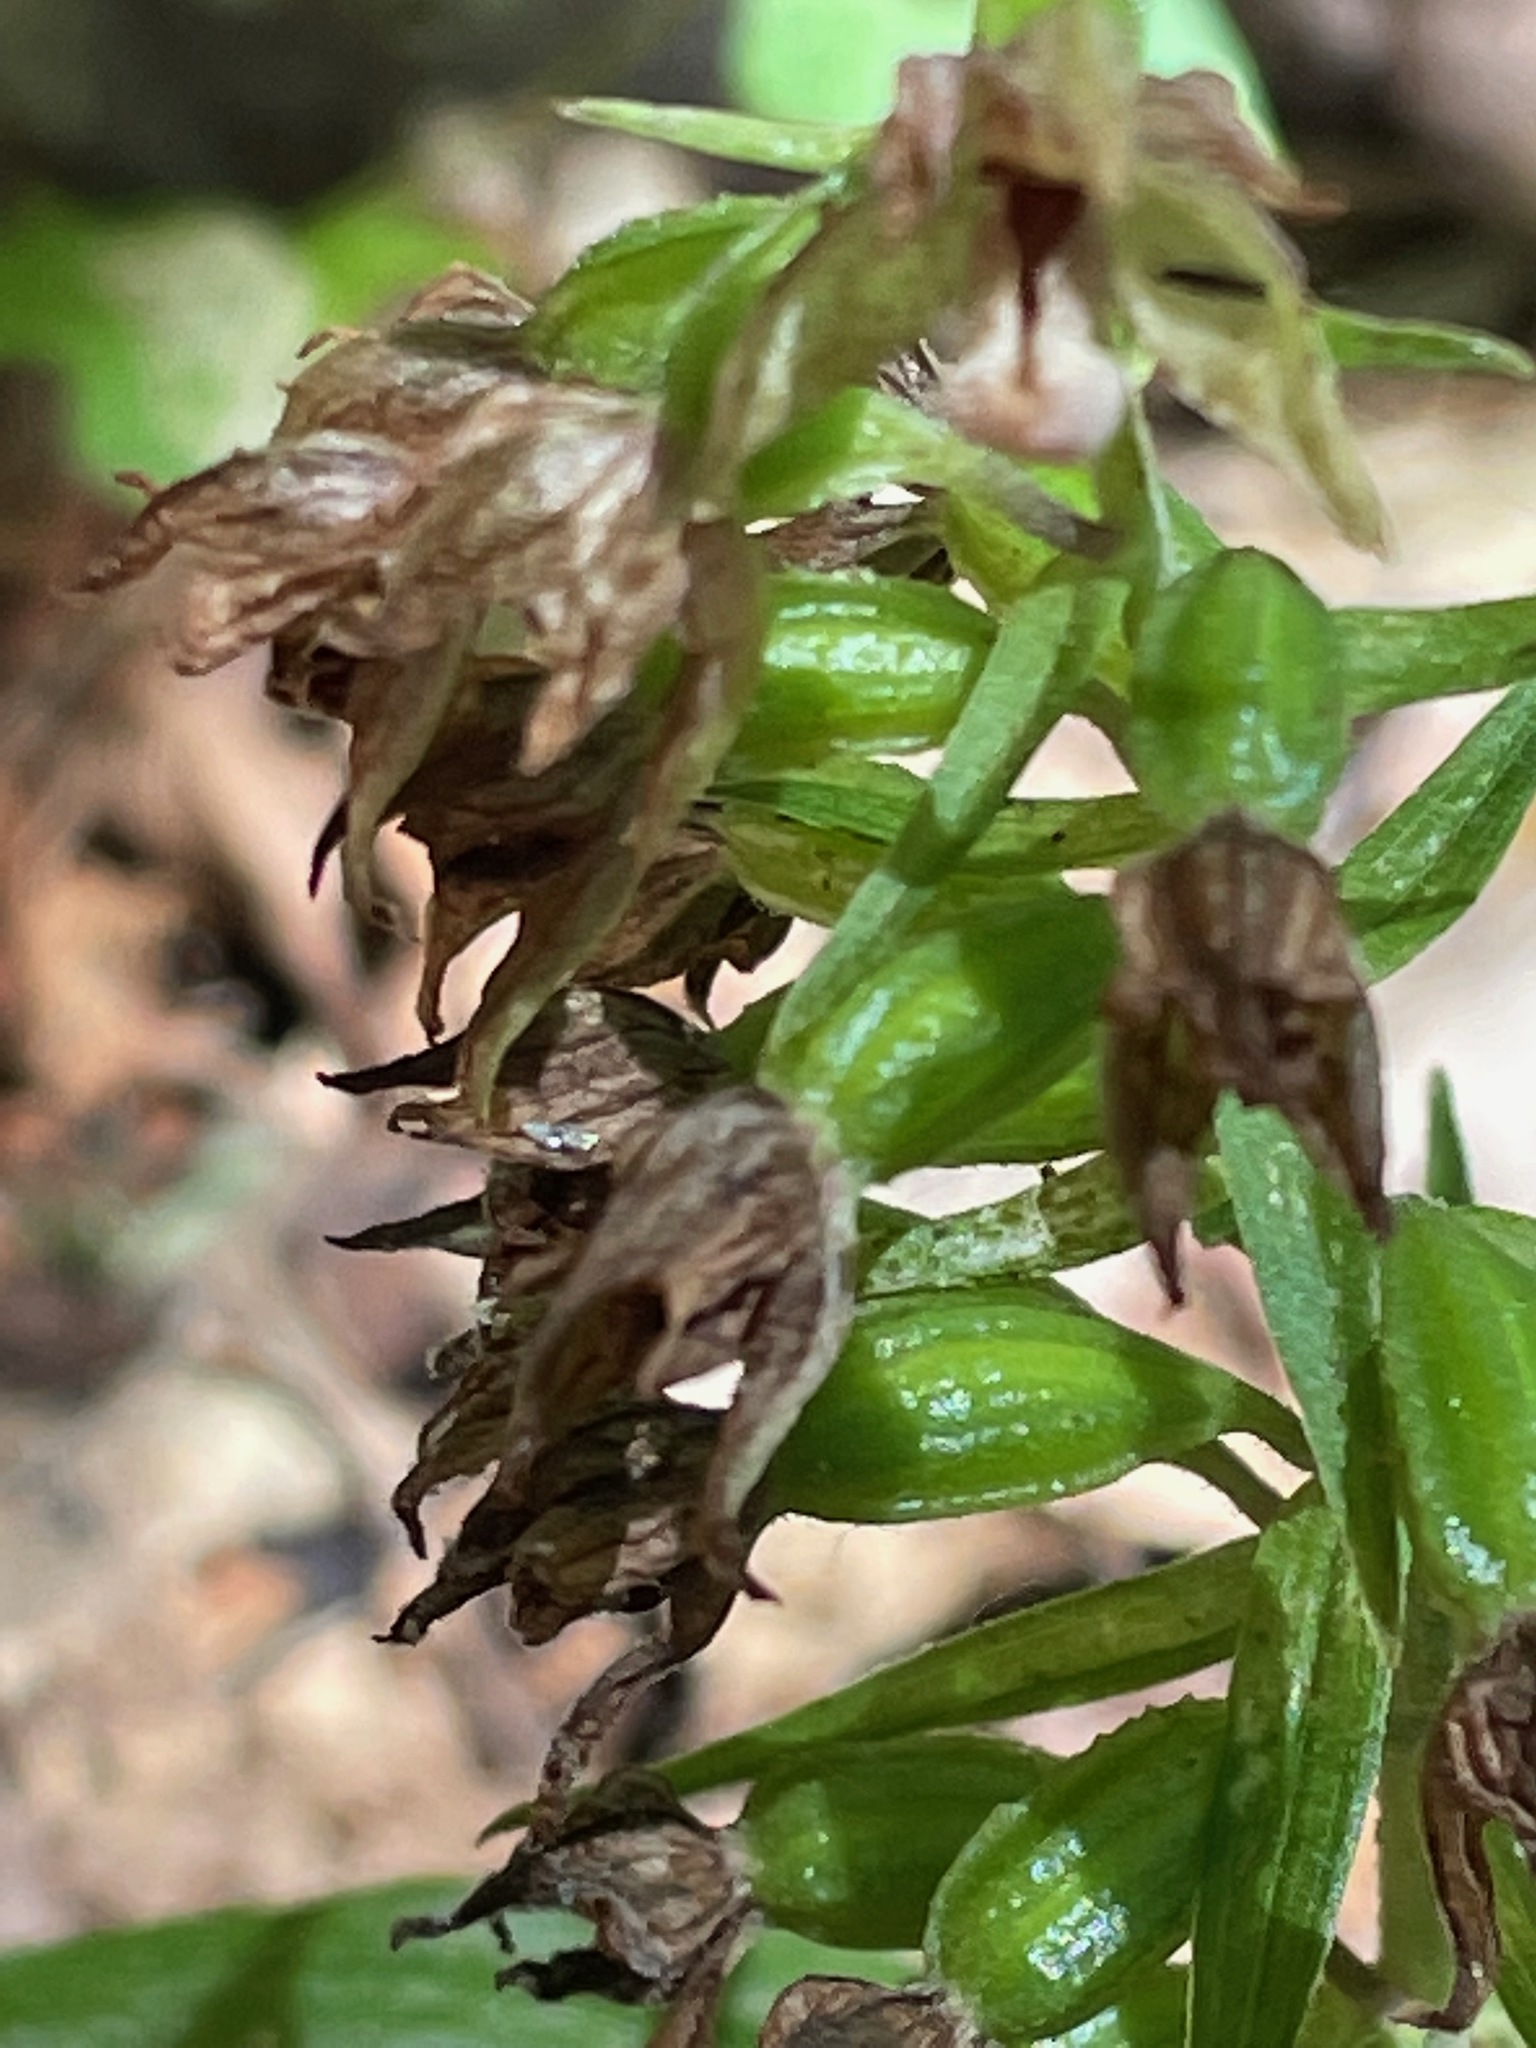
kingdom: Plantae
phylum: Tracheophyta
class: Liliopsida
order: Asparagales
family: Orchidaceae
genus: Epipactis
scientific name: Epipactis helleborine
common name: Broad-leaved helleborine
